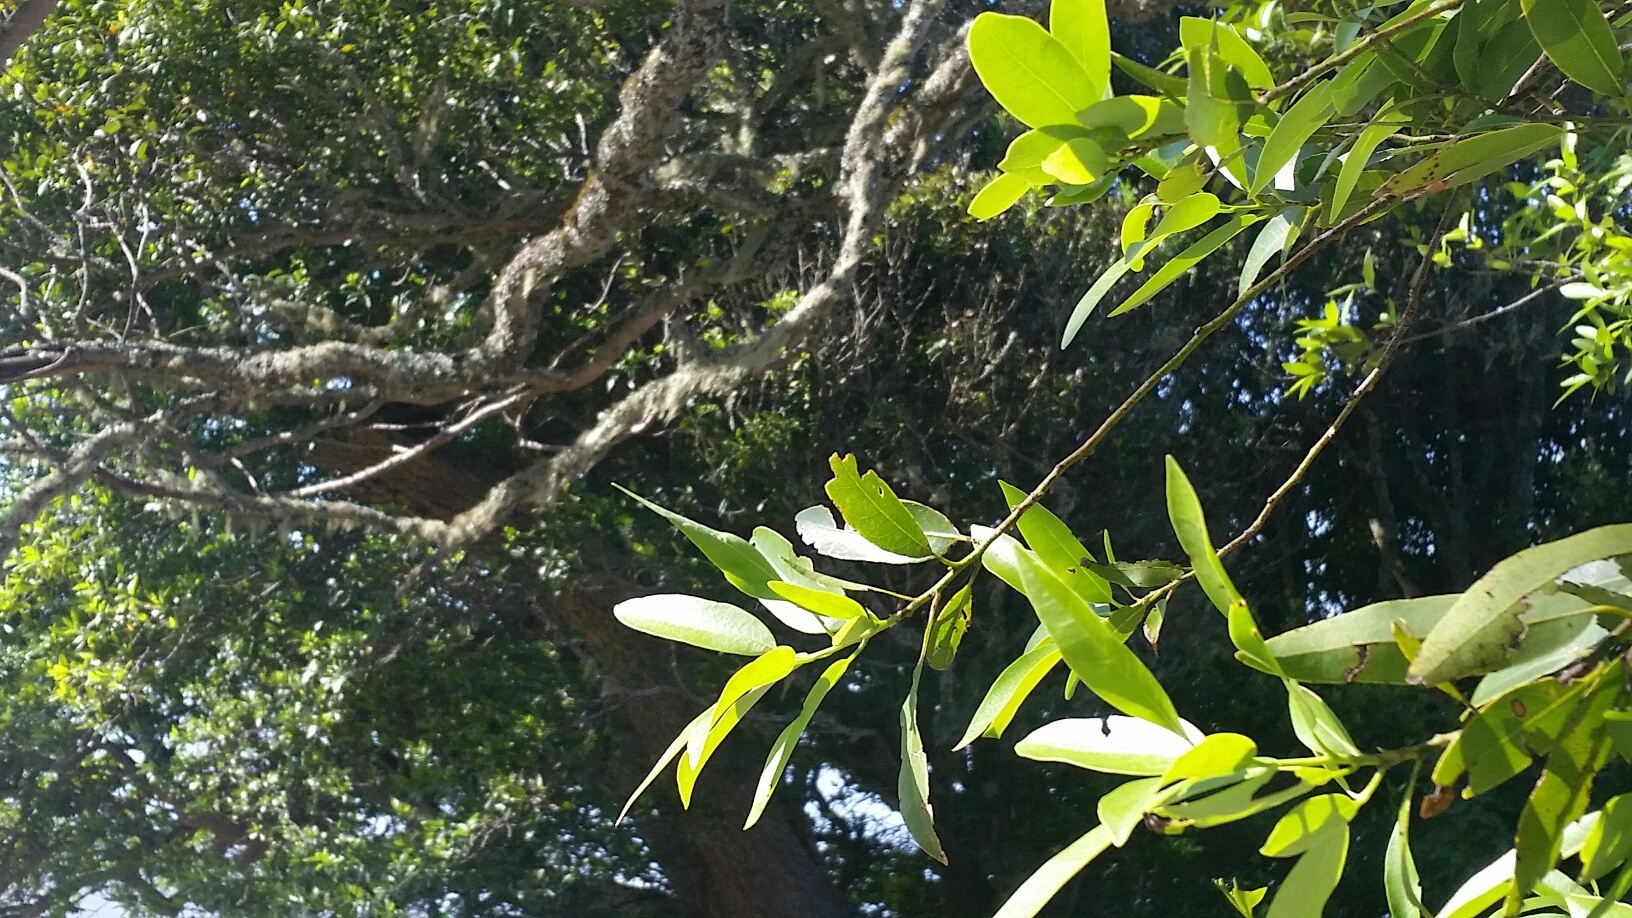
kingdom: Plantae
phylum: Tracheophyta
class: Magnoliopsida
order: Laurales
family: Lauraceae
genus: Umbellularia
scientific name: Umbellularia californica
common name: California bay
